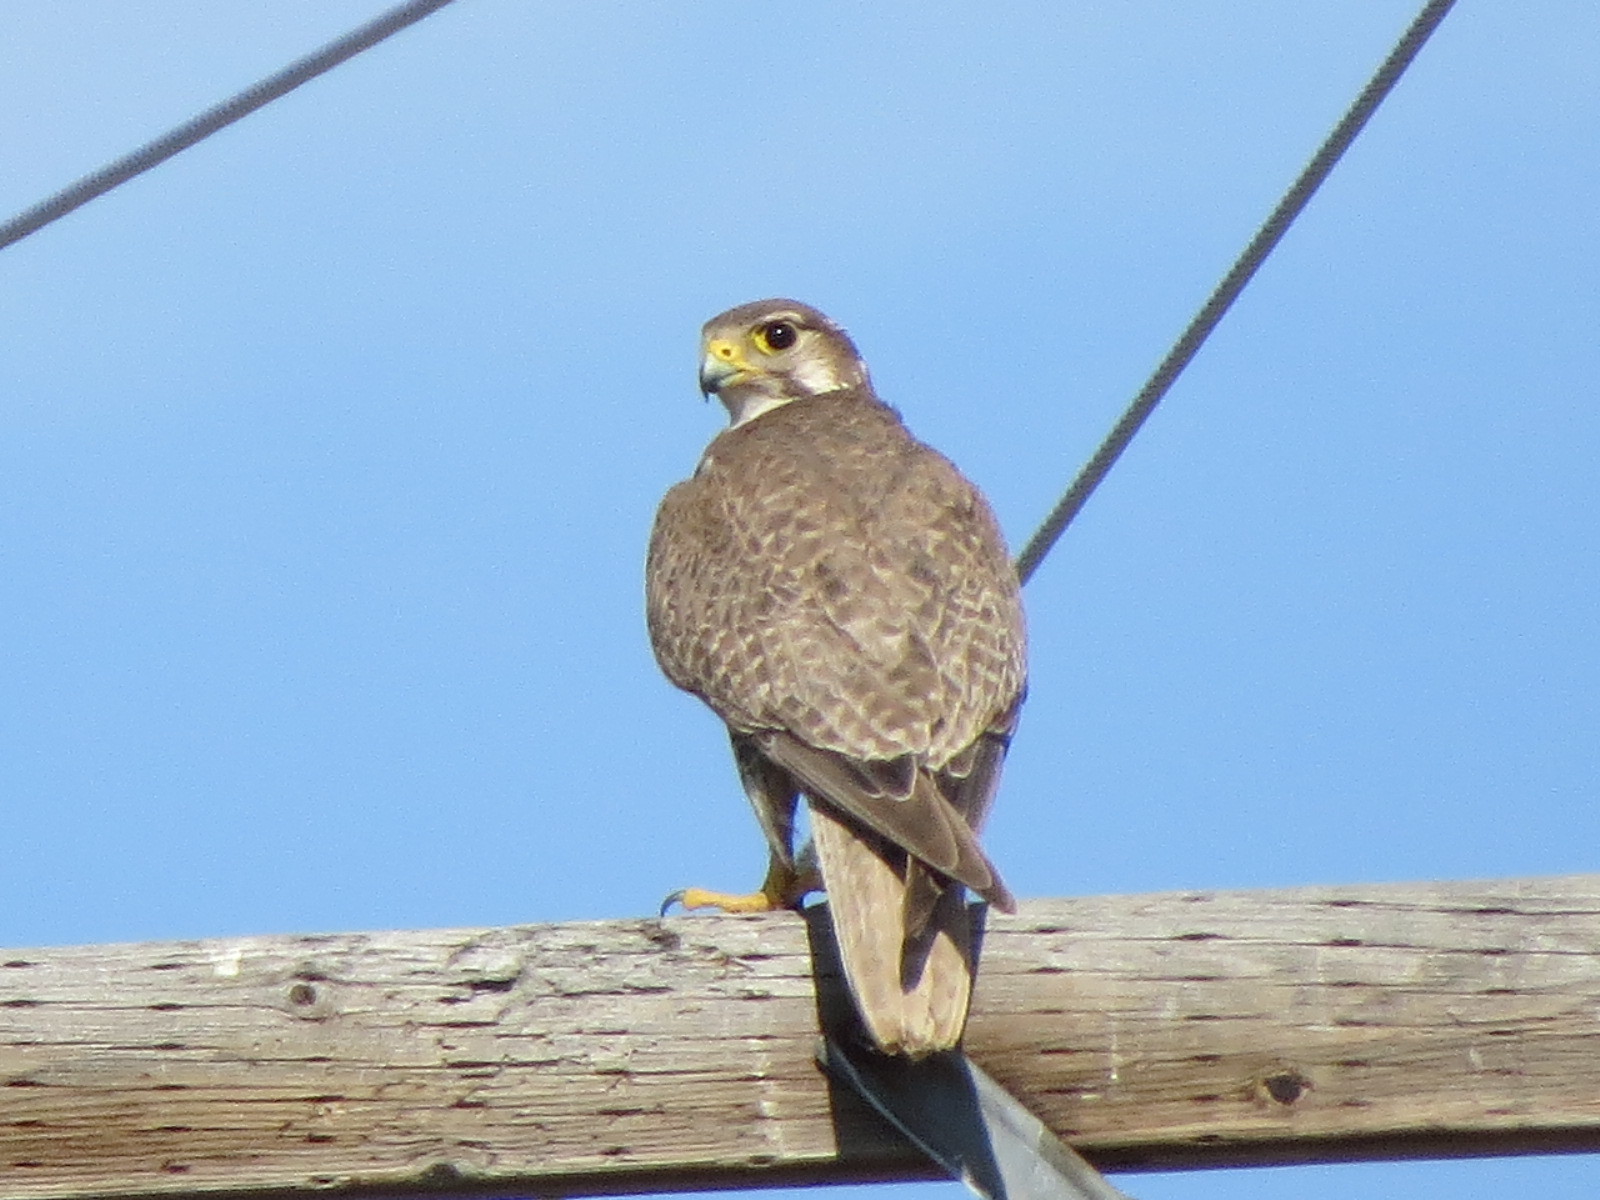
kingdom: Animalia
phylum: Chordata
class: Aves
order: Falconiformes
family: Falconidae
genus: Falco
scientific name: Falco mexicanus
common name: Prairie falcon
